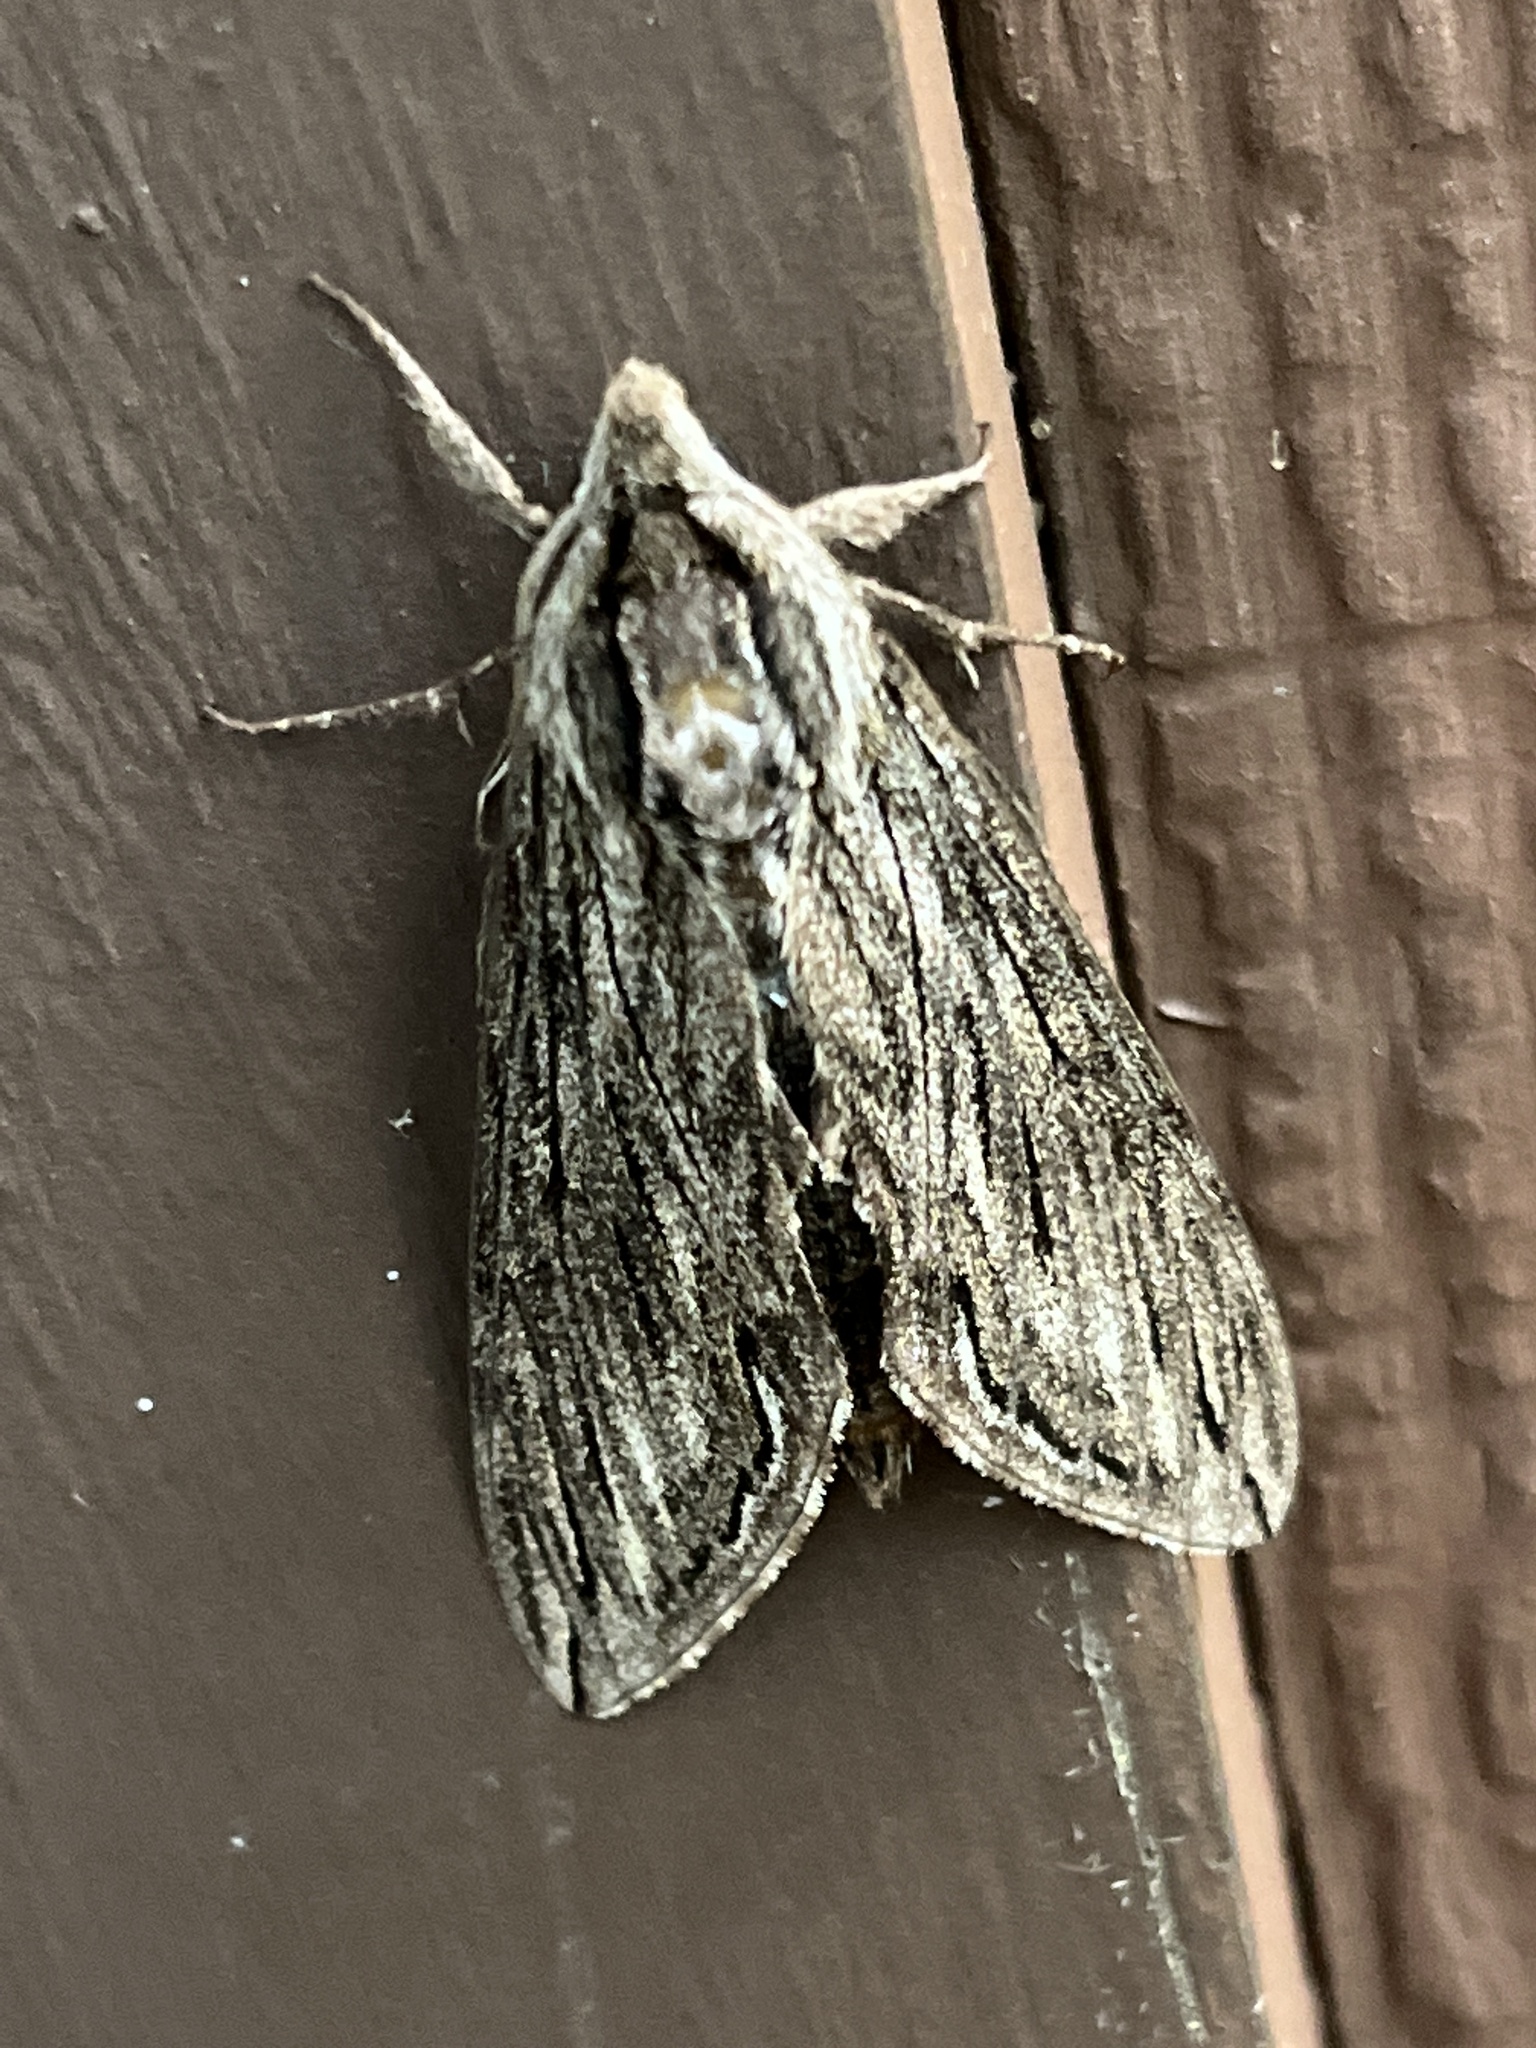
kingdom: Animalia
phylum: Arthropoda
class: Insecta
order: Lepidoptera
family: Sphingidae
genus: Sphinx
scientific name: Sphinx canadensis
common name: Canadian sphinx
